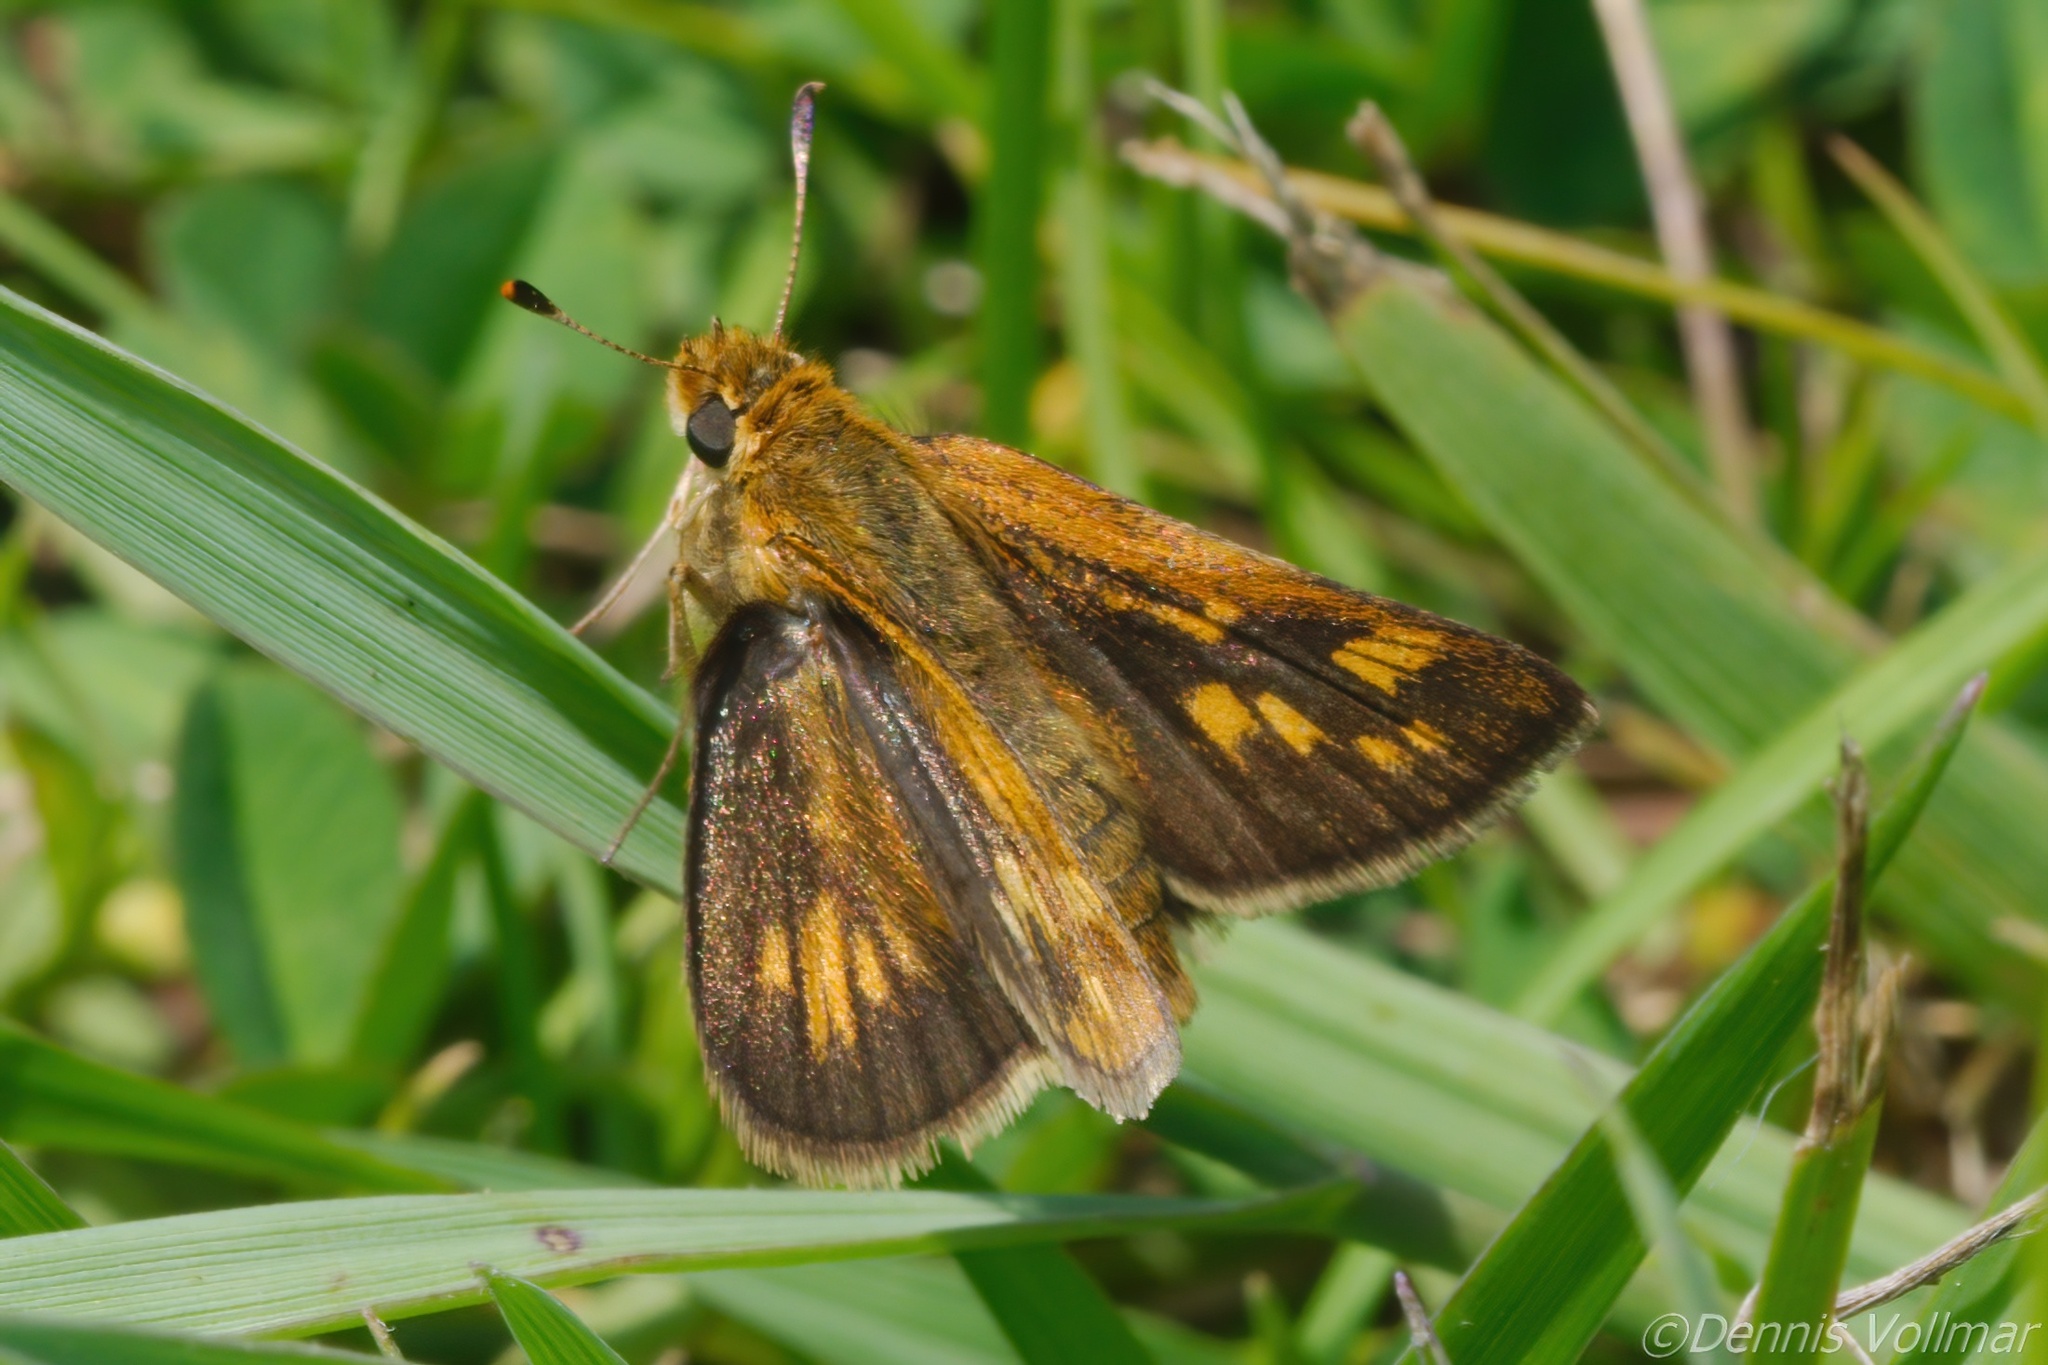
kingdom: Animalia
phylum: Arthropoda
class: Insecta
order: Lepidoptera
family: Hesperiidae
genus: Polites
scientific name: Polites coras
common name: Peck's skipper
